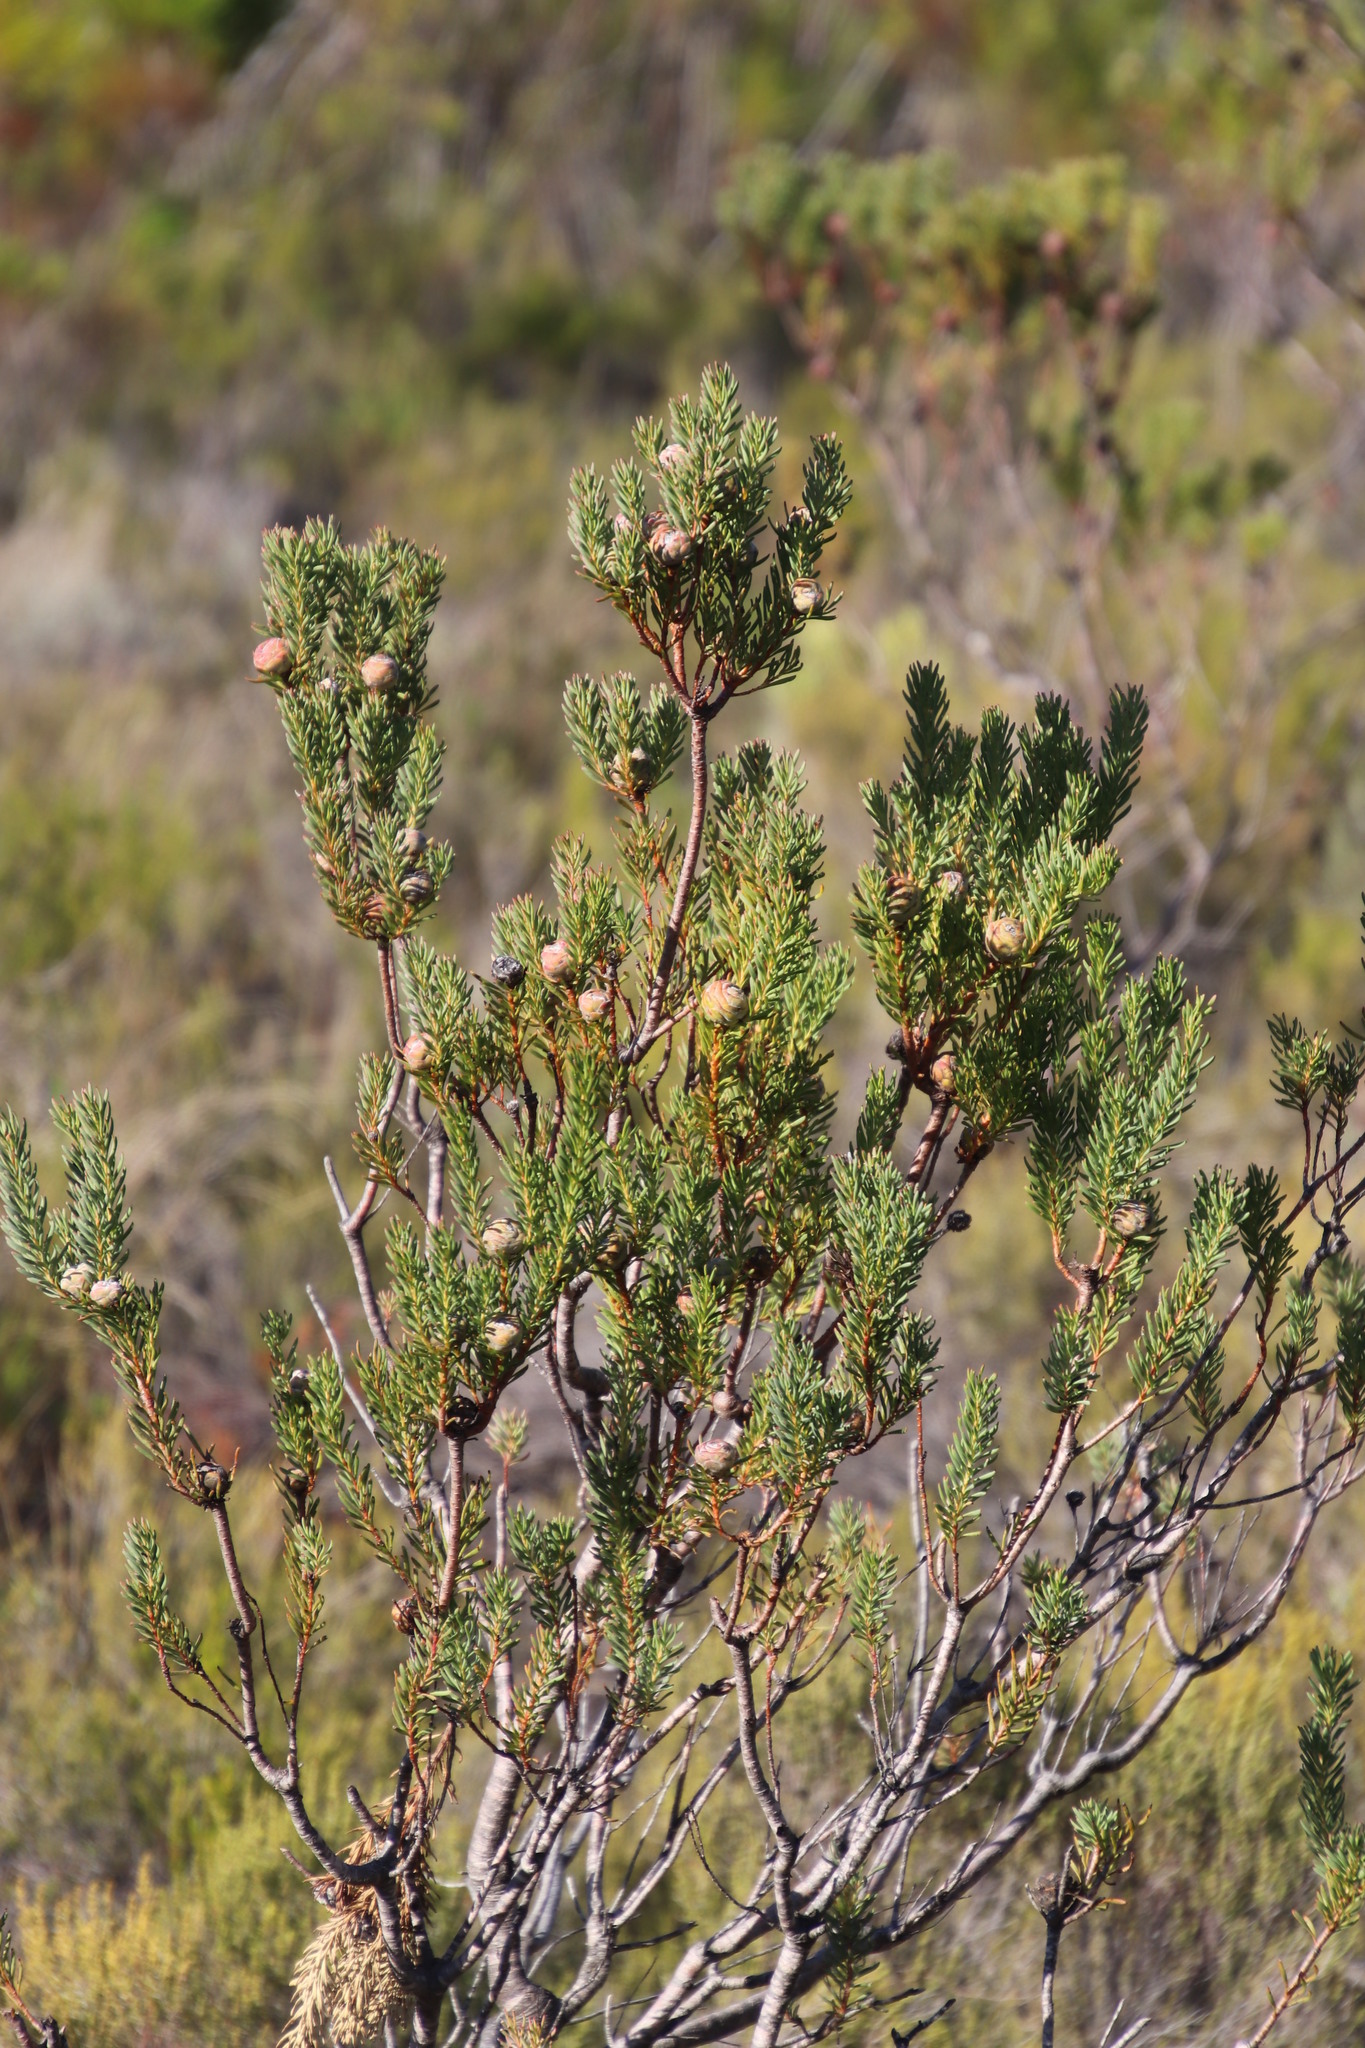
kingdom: Plantae
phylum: Tracheophyta
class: Magnoliopsida
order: Proteales
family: Proteaceae
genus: Leucadendron
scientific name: Leucadendron linifolium
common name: Line-leaf conebush
